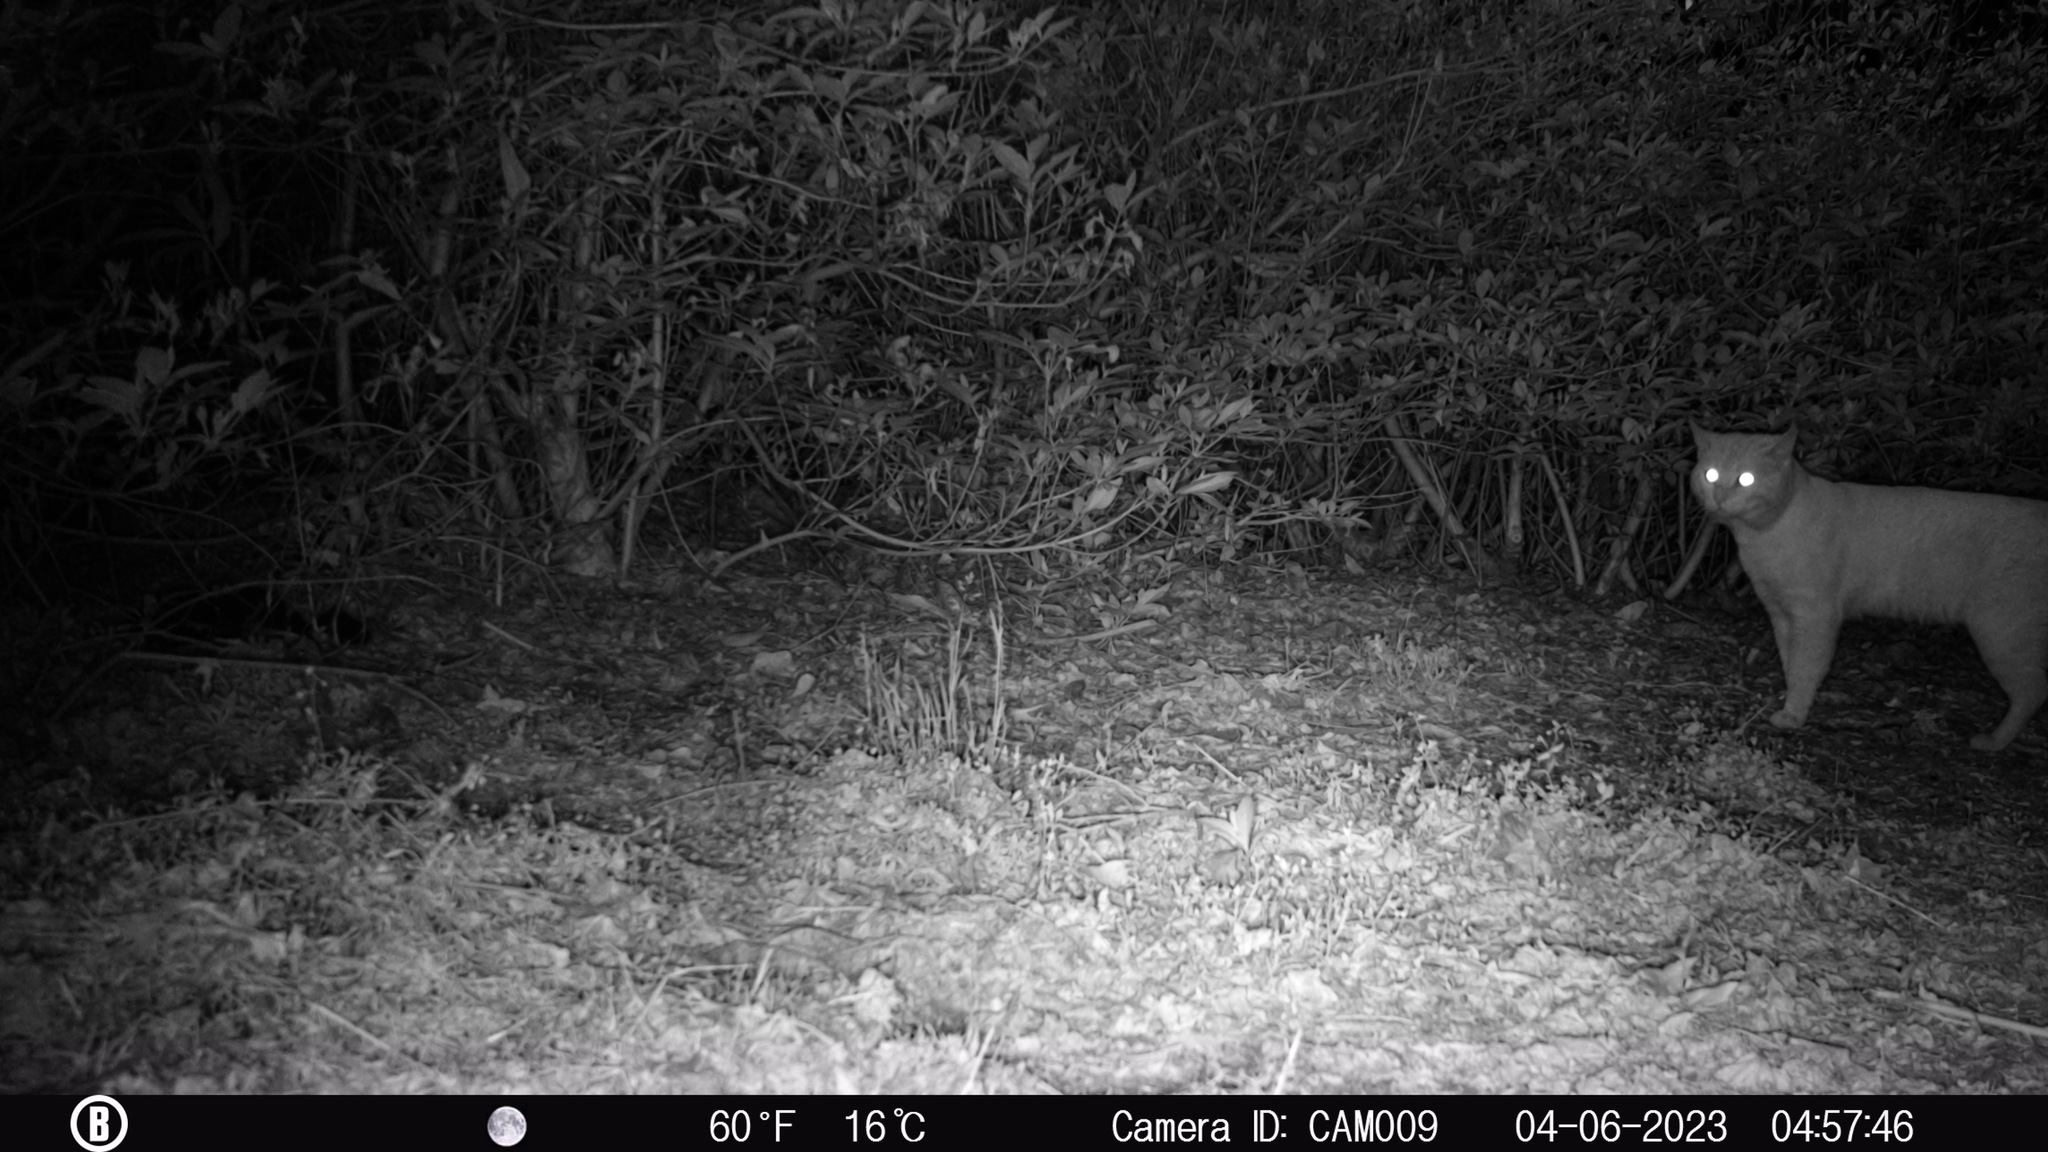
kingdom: Animalia
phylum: Chordata
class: Mammalia
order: Carnivora
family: Felidae
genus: Felis
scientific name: Felis catus
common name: Domestic cat
